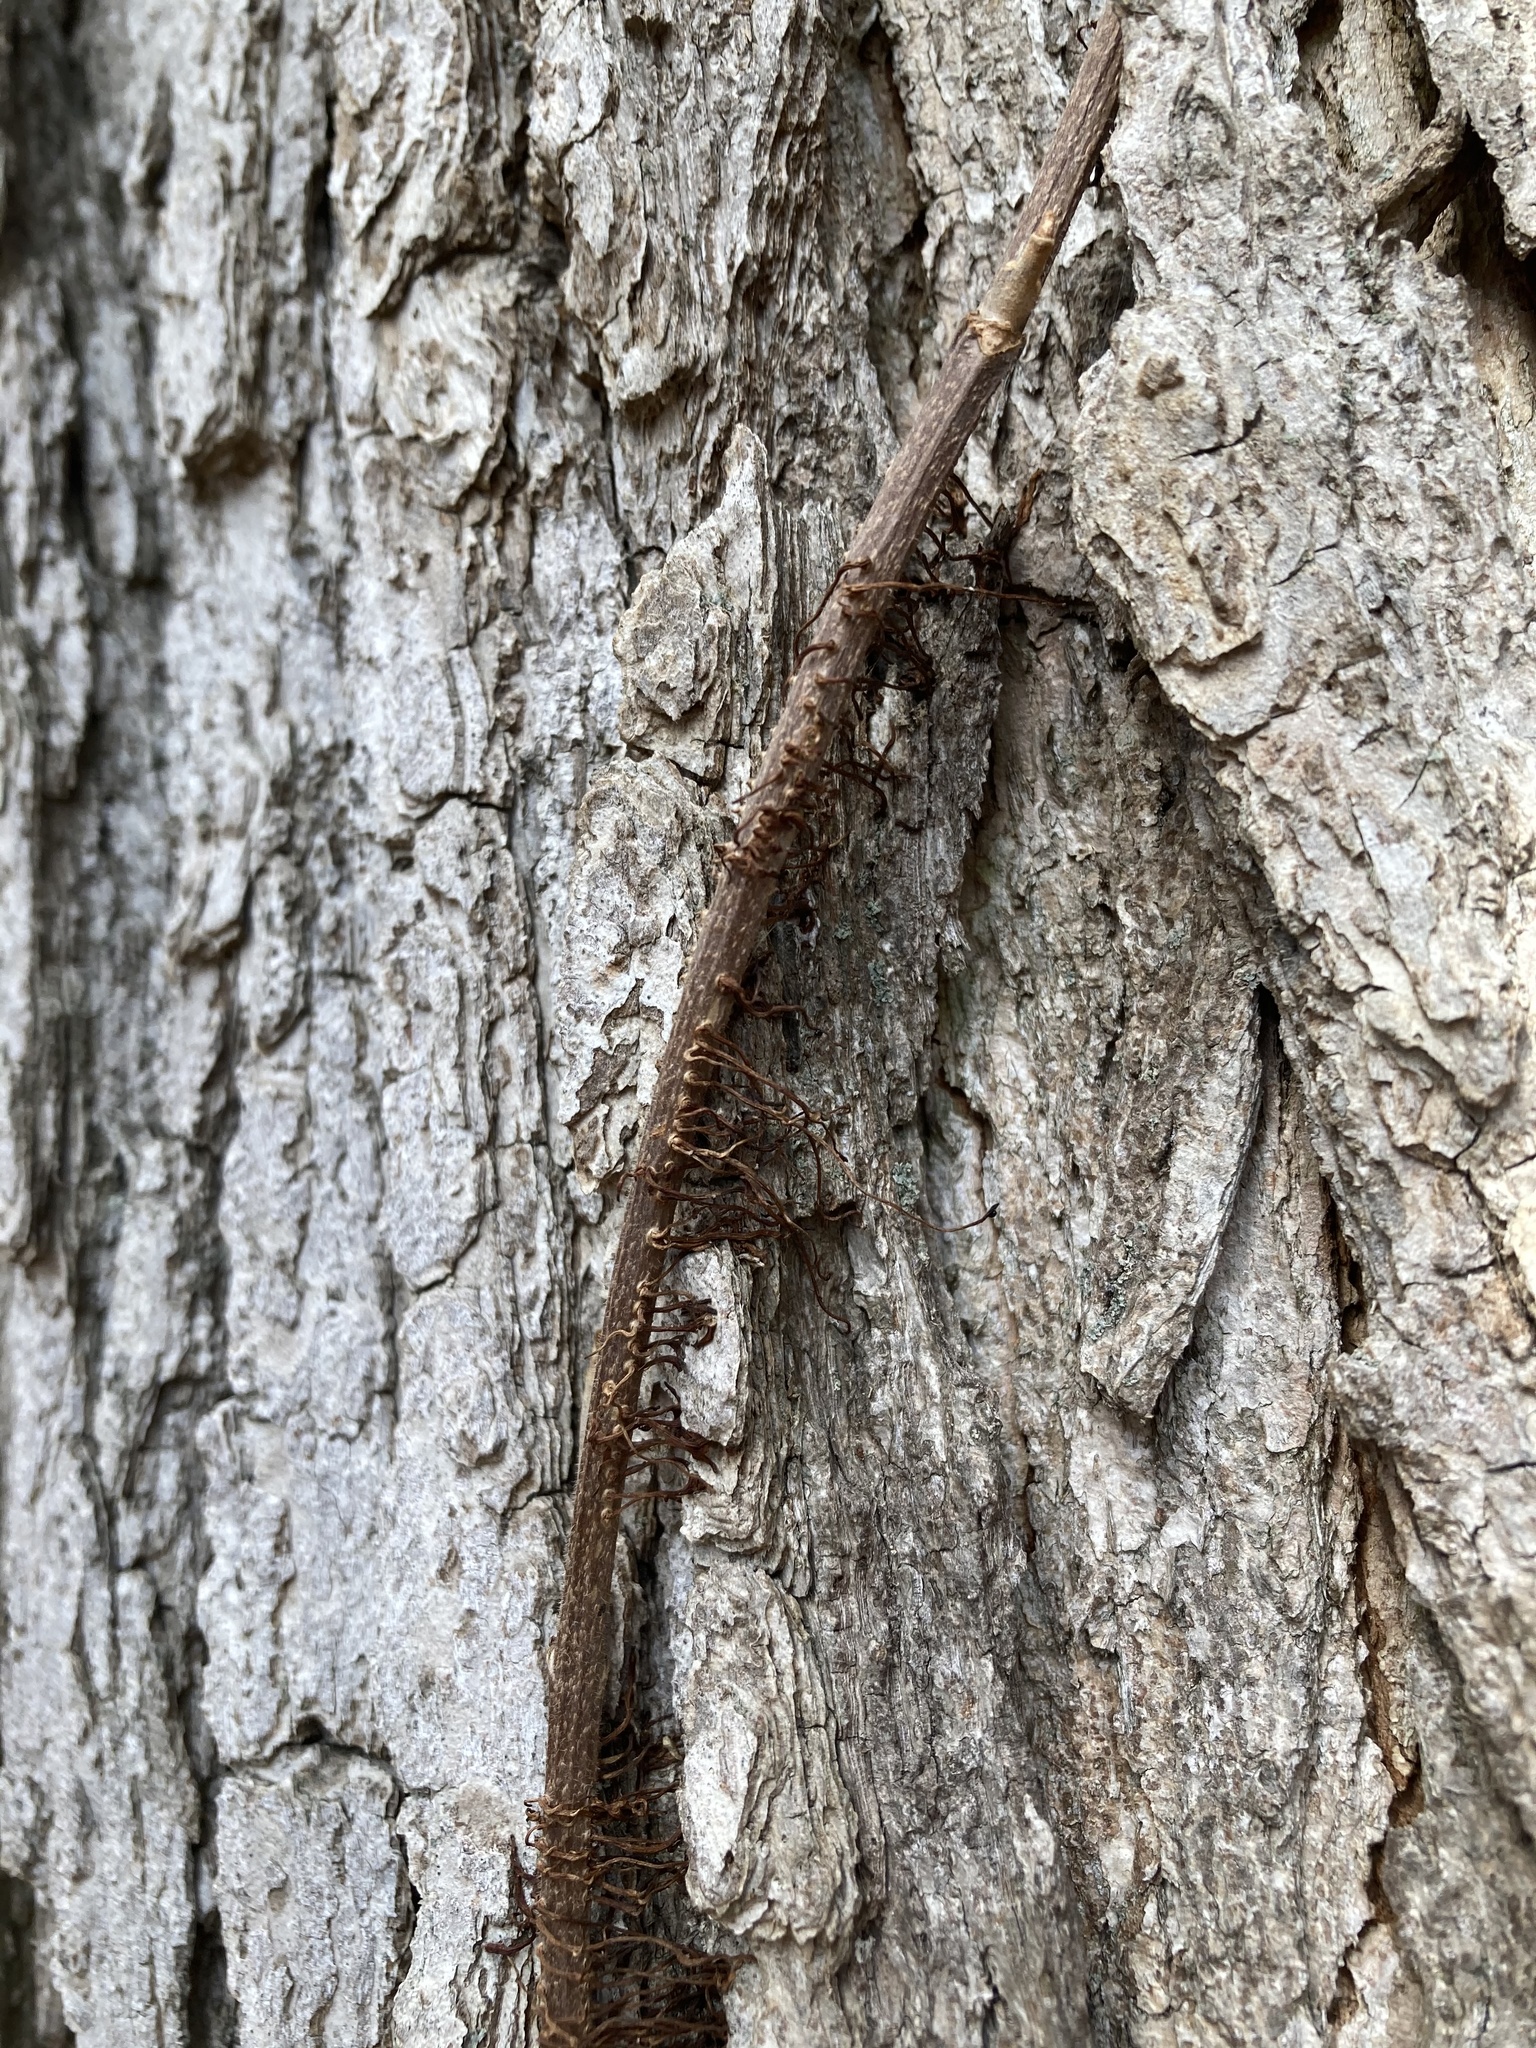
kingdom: Plantae
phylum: Tracheophyta
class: Magnoliopsida
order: Sapindales
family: Anacardiaceae
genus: Toxicodendron
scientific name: Toxicodendron radicans
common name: Poison ivy
